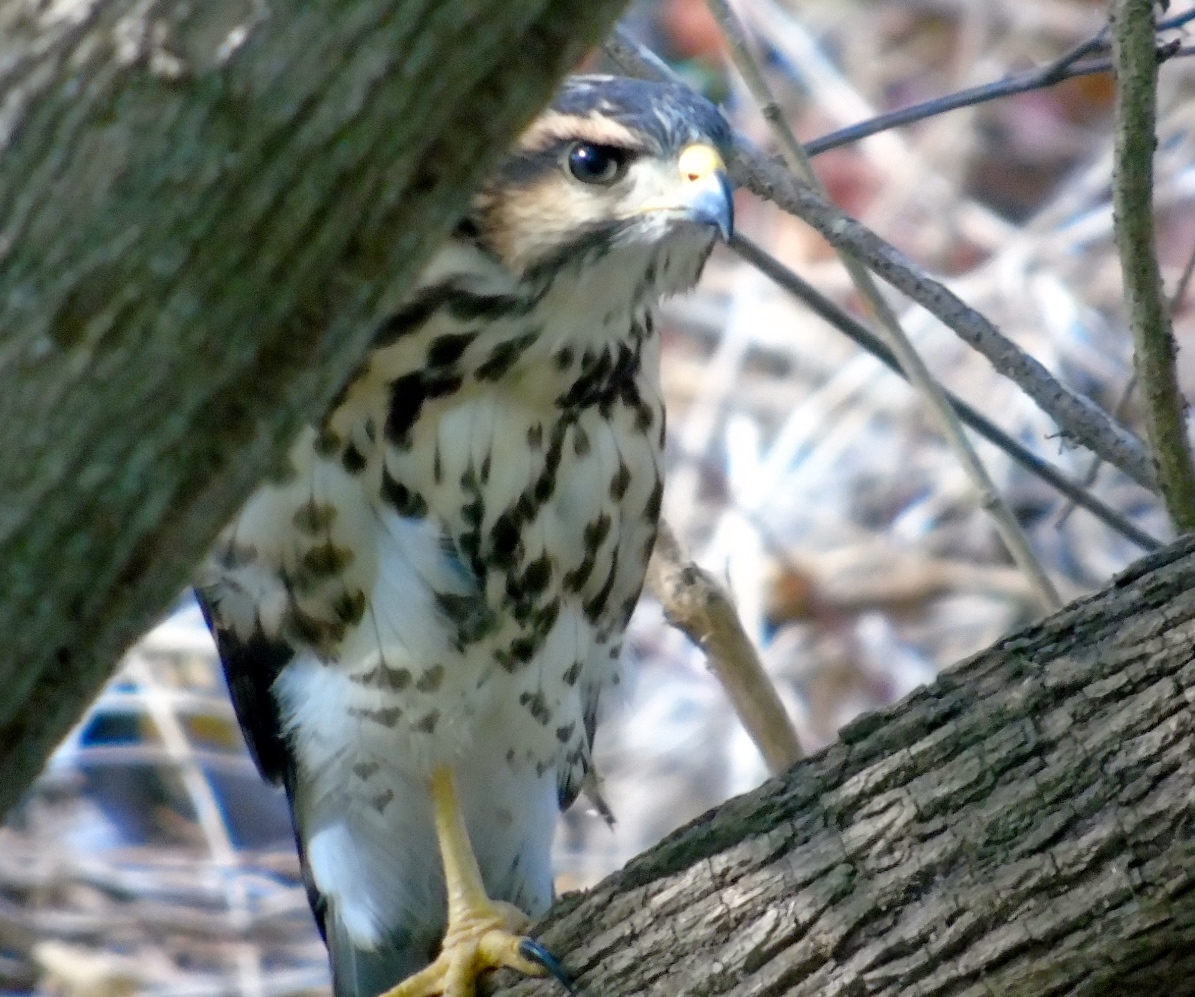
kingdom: Animalia
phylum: Chordata
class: Aves
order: Accipitriformes
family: Accipitridae
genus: Buteo
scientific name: Buteo nitidus
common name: Grey-lined hawk
